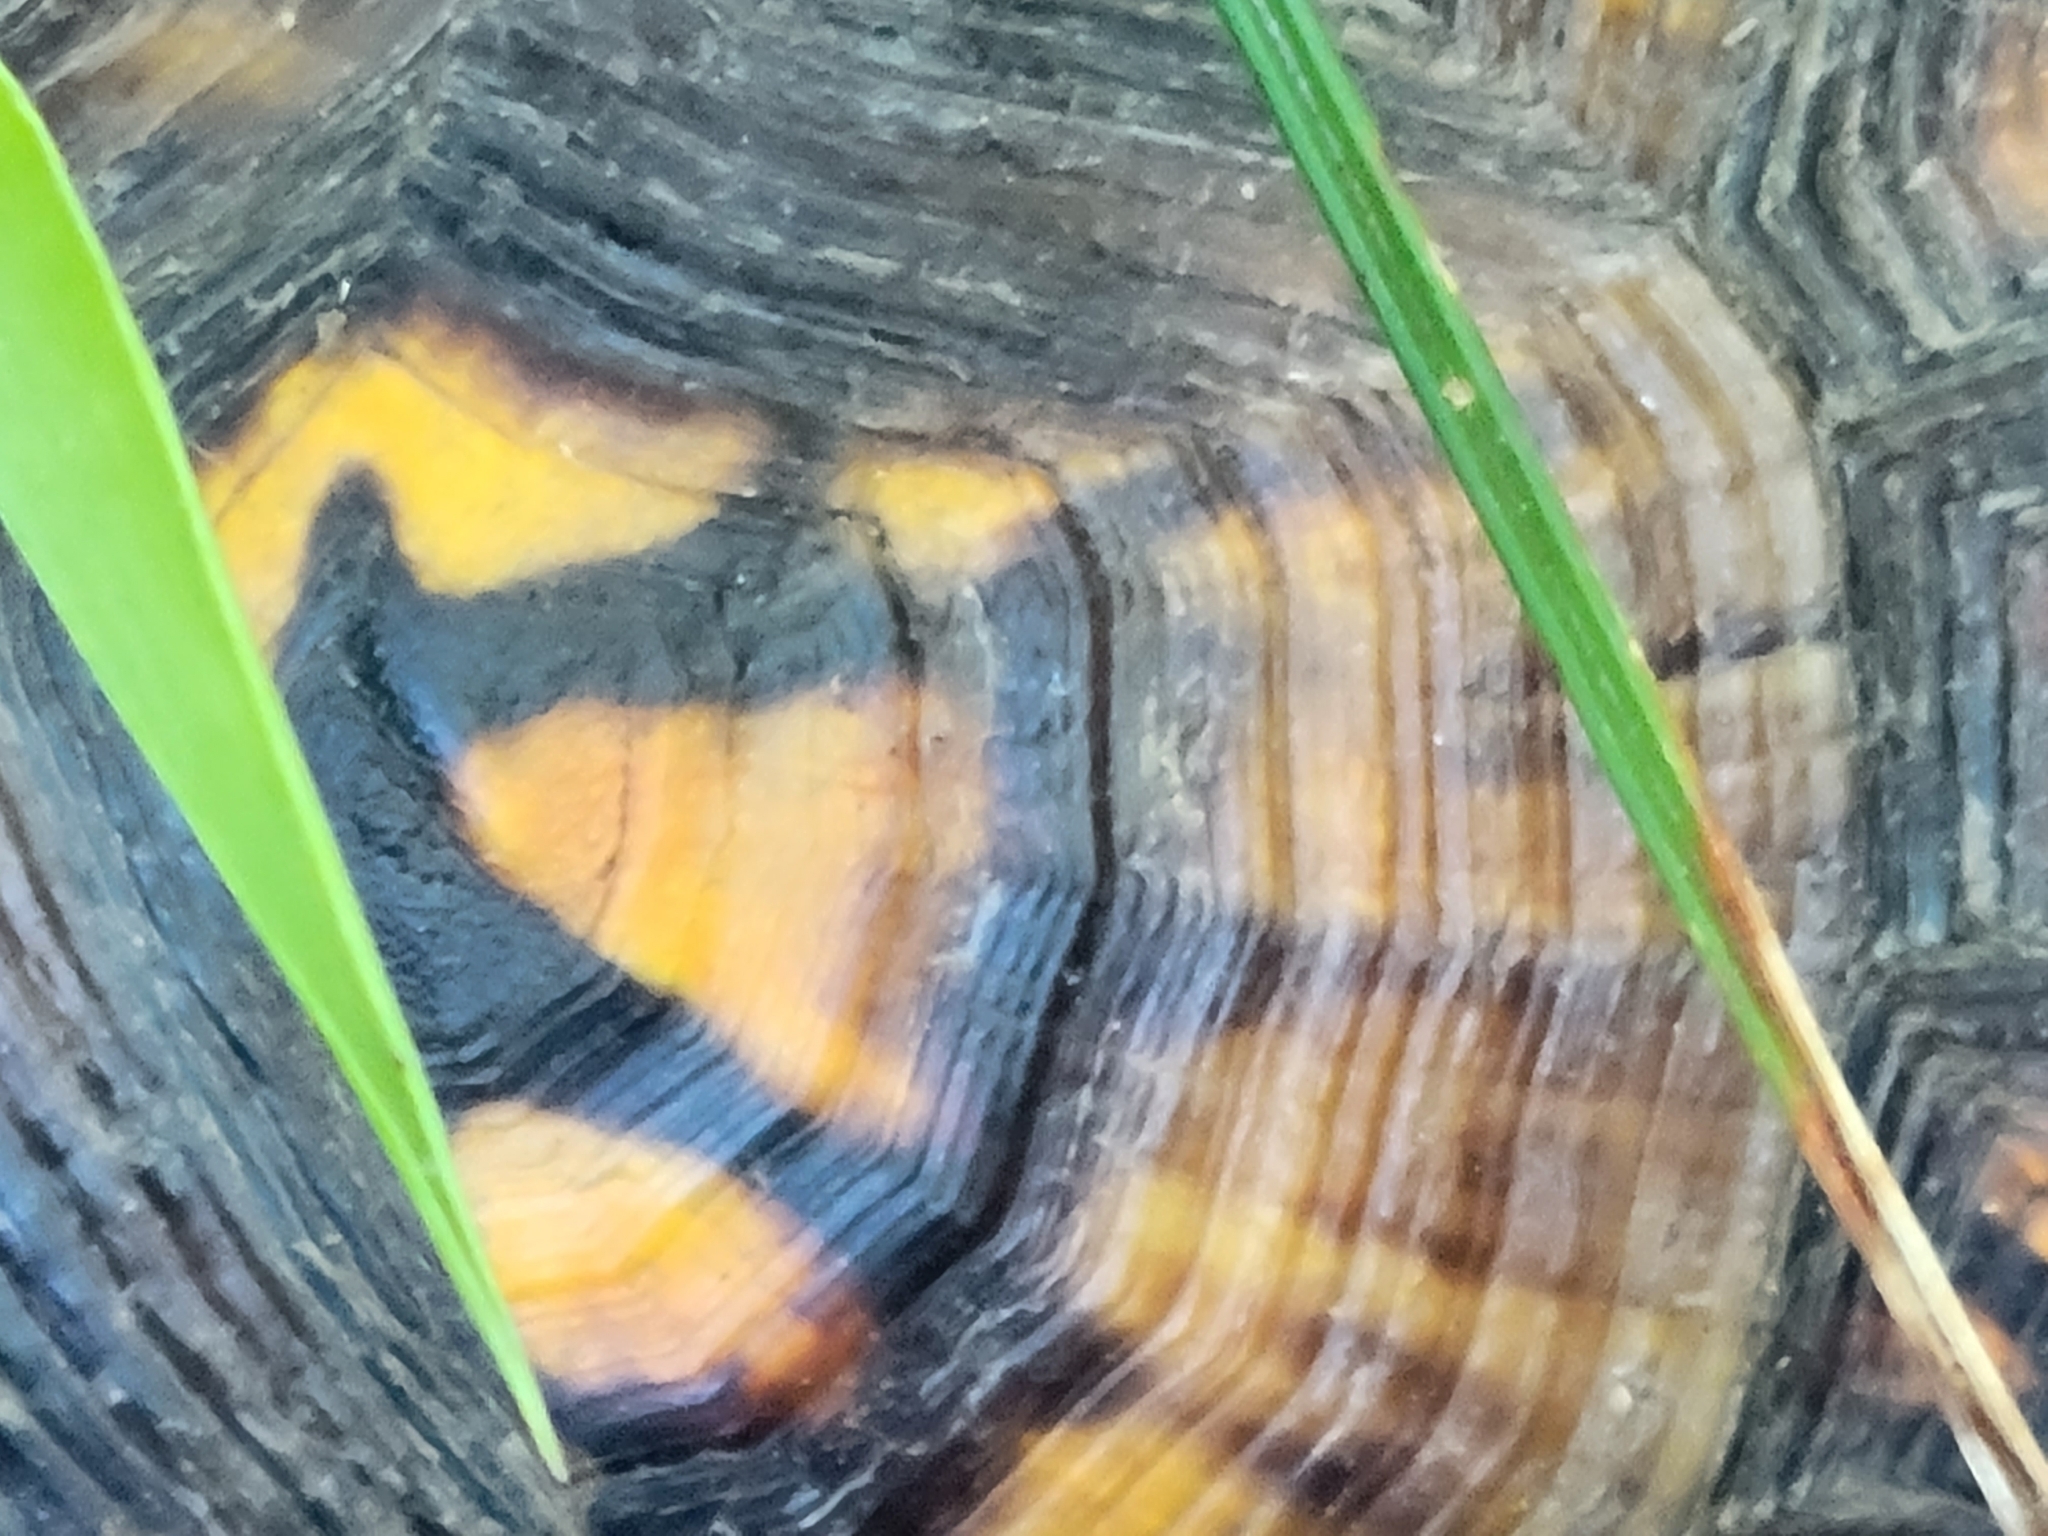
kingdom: Animalia
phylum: Chordata
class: Testudines
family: Emydidae
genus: Terrapene
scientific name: Terrapene carolina
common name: Common box turtle
